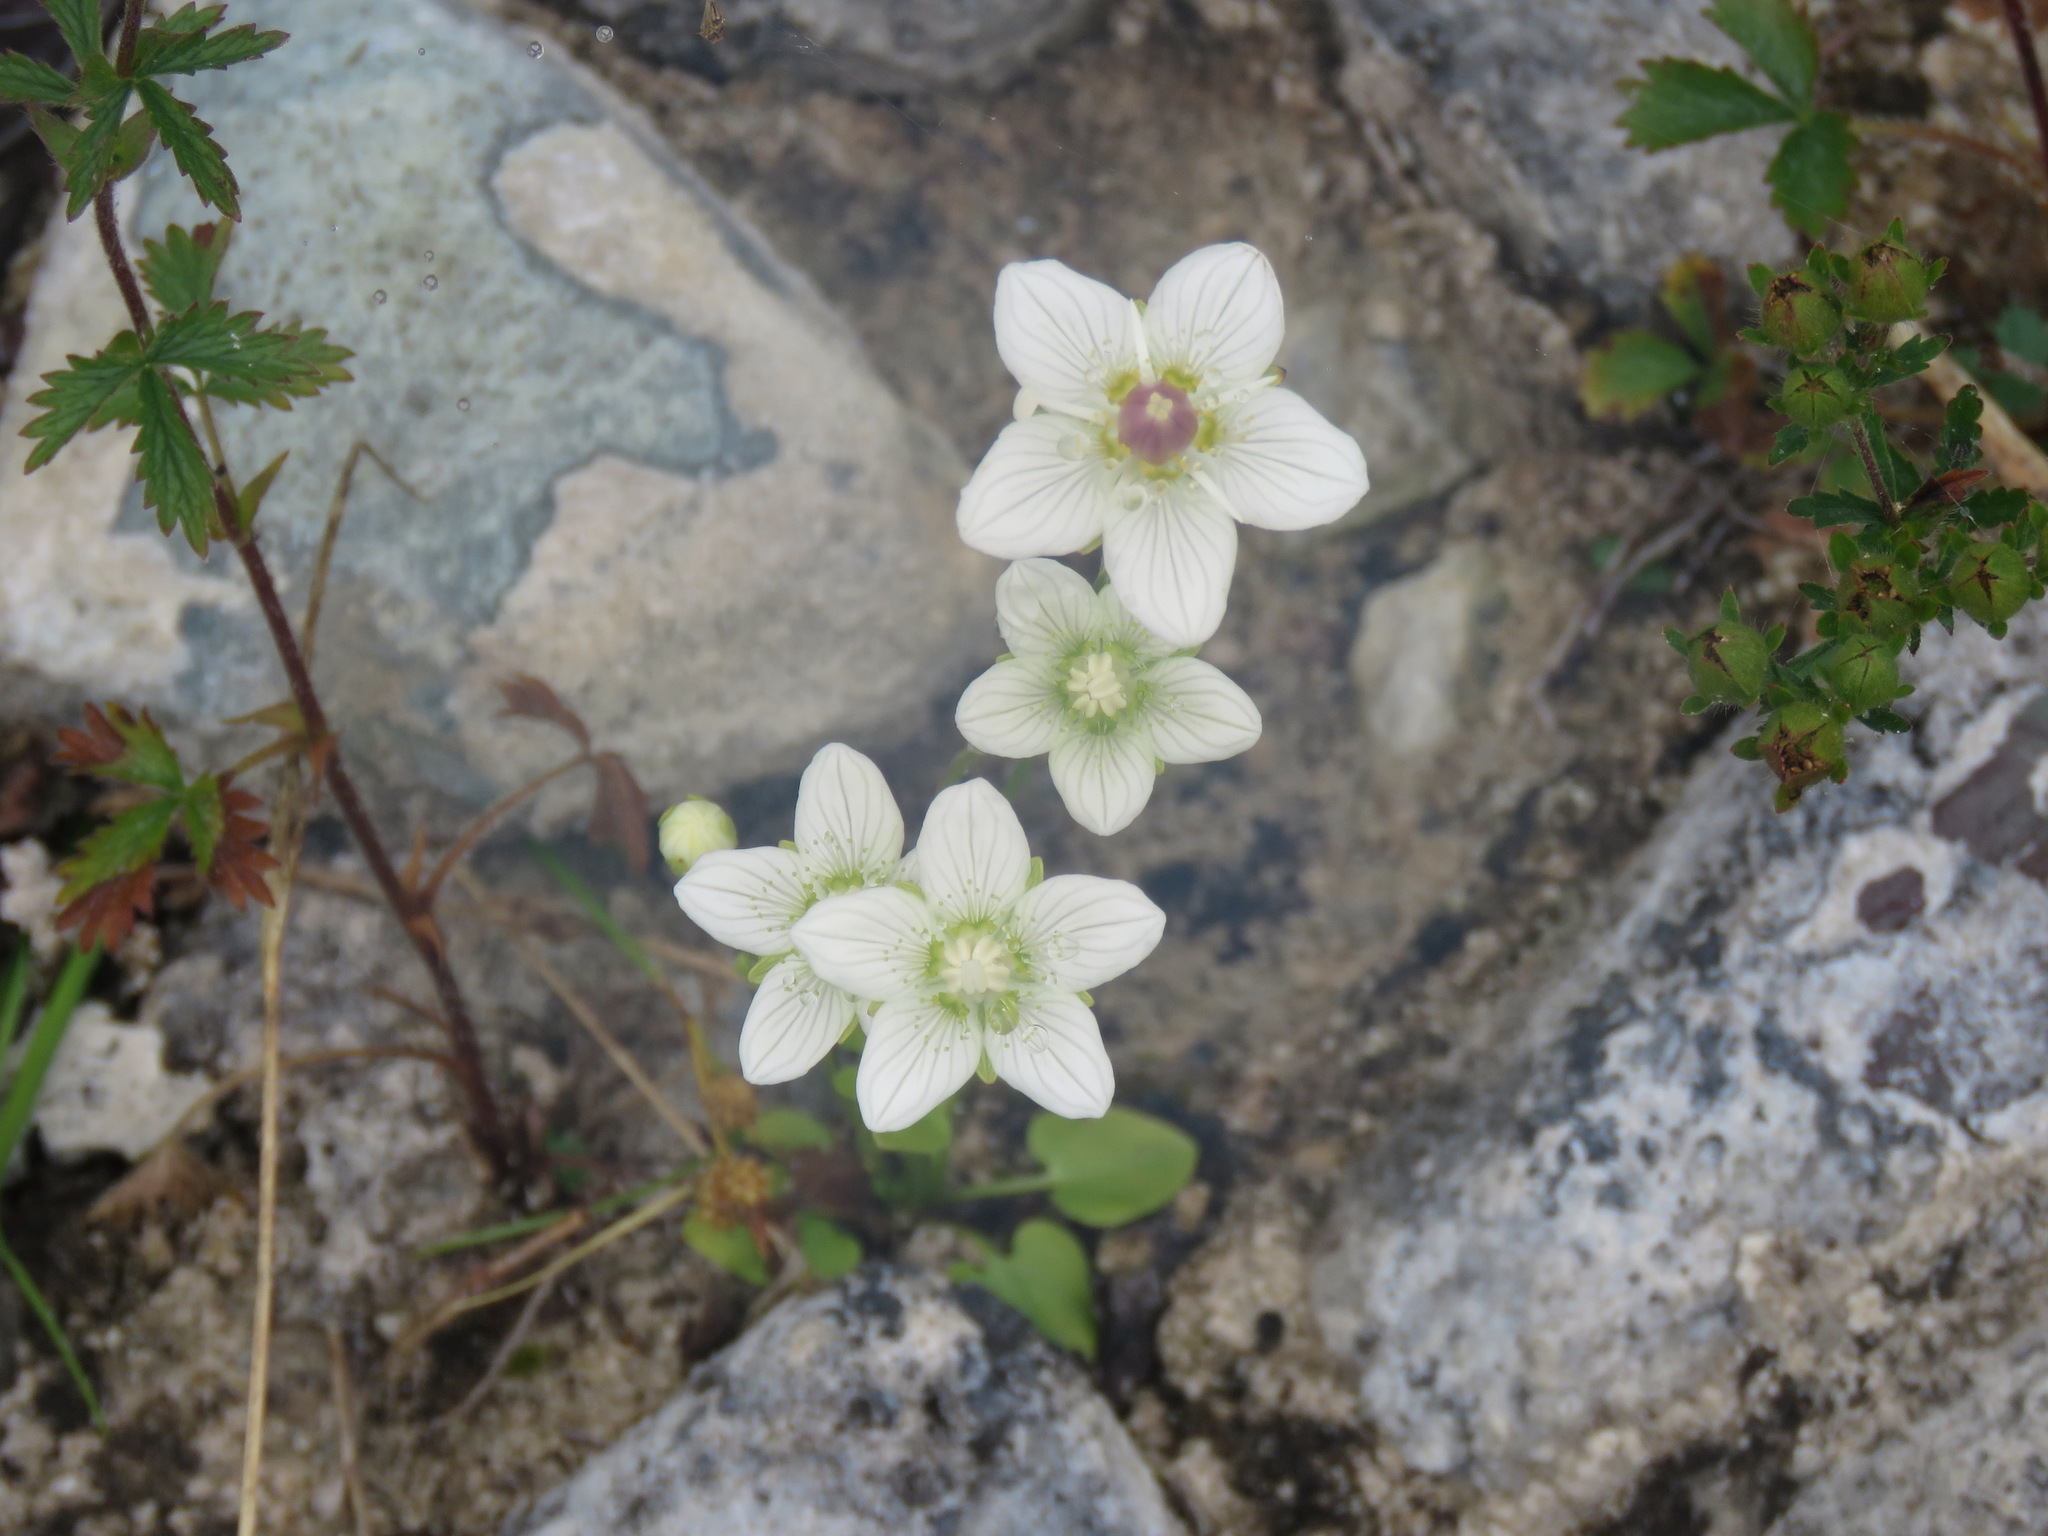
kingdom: Plantae
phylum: Tracheophyta
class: Magnoliopsida
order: Celastrales
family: Parnassiaceae
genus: Parnassia
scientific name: Parnassia palustris
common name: Grass-of-parnassus
